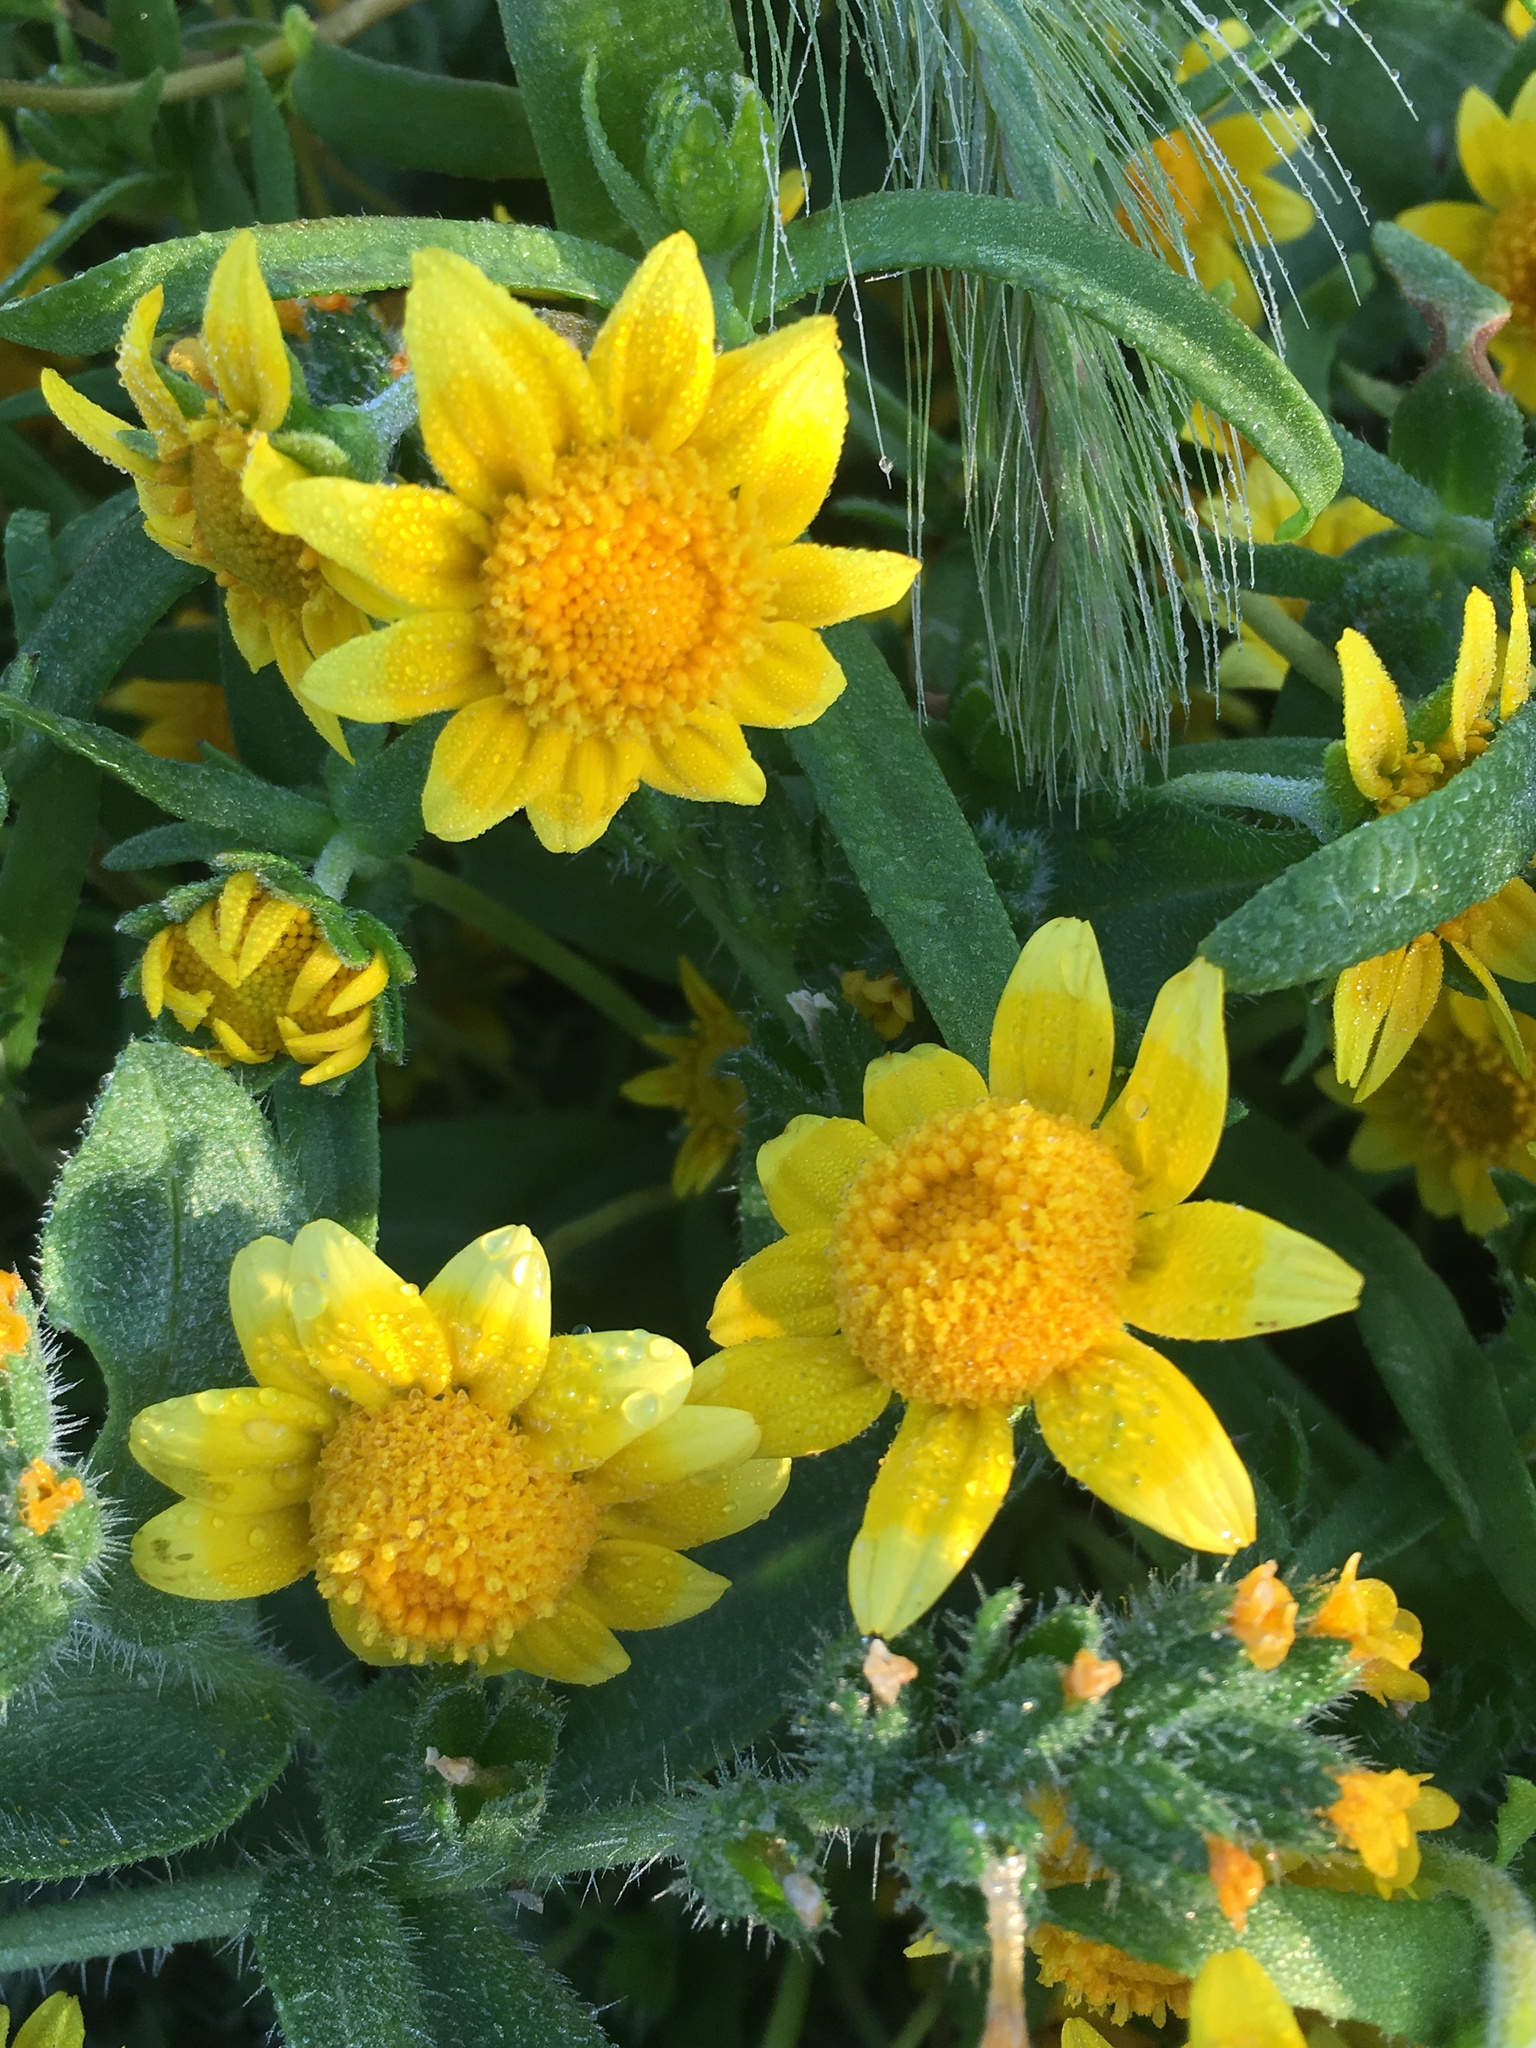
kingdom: Plantae
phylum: Tracheophyta
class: Magnoliopsida
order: Asterales
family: Asteraceae
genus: Lasthenia
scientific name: Lasthenia gracilis
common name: Common goldfields
